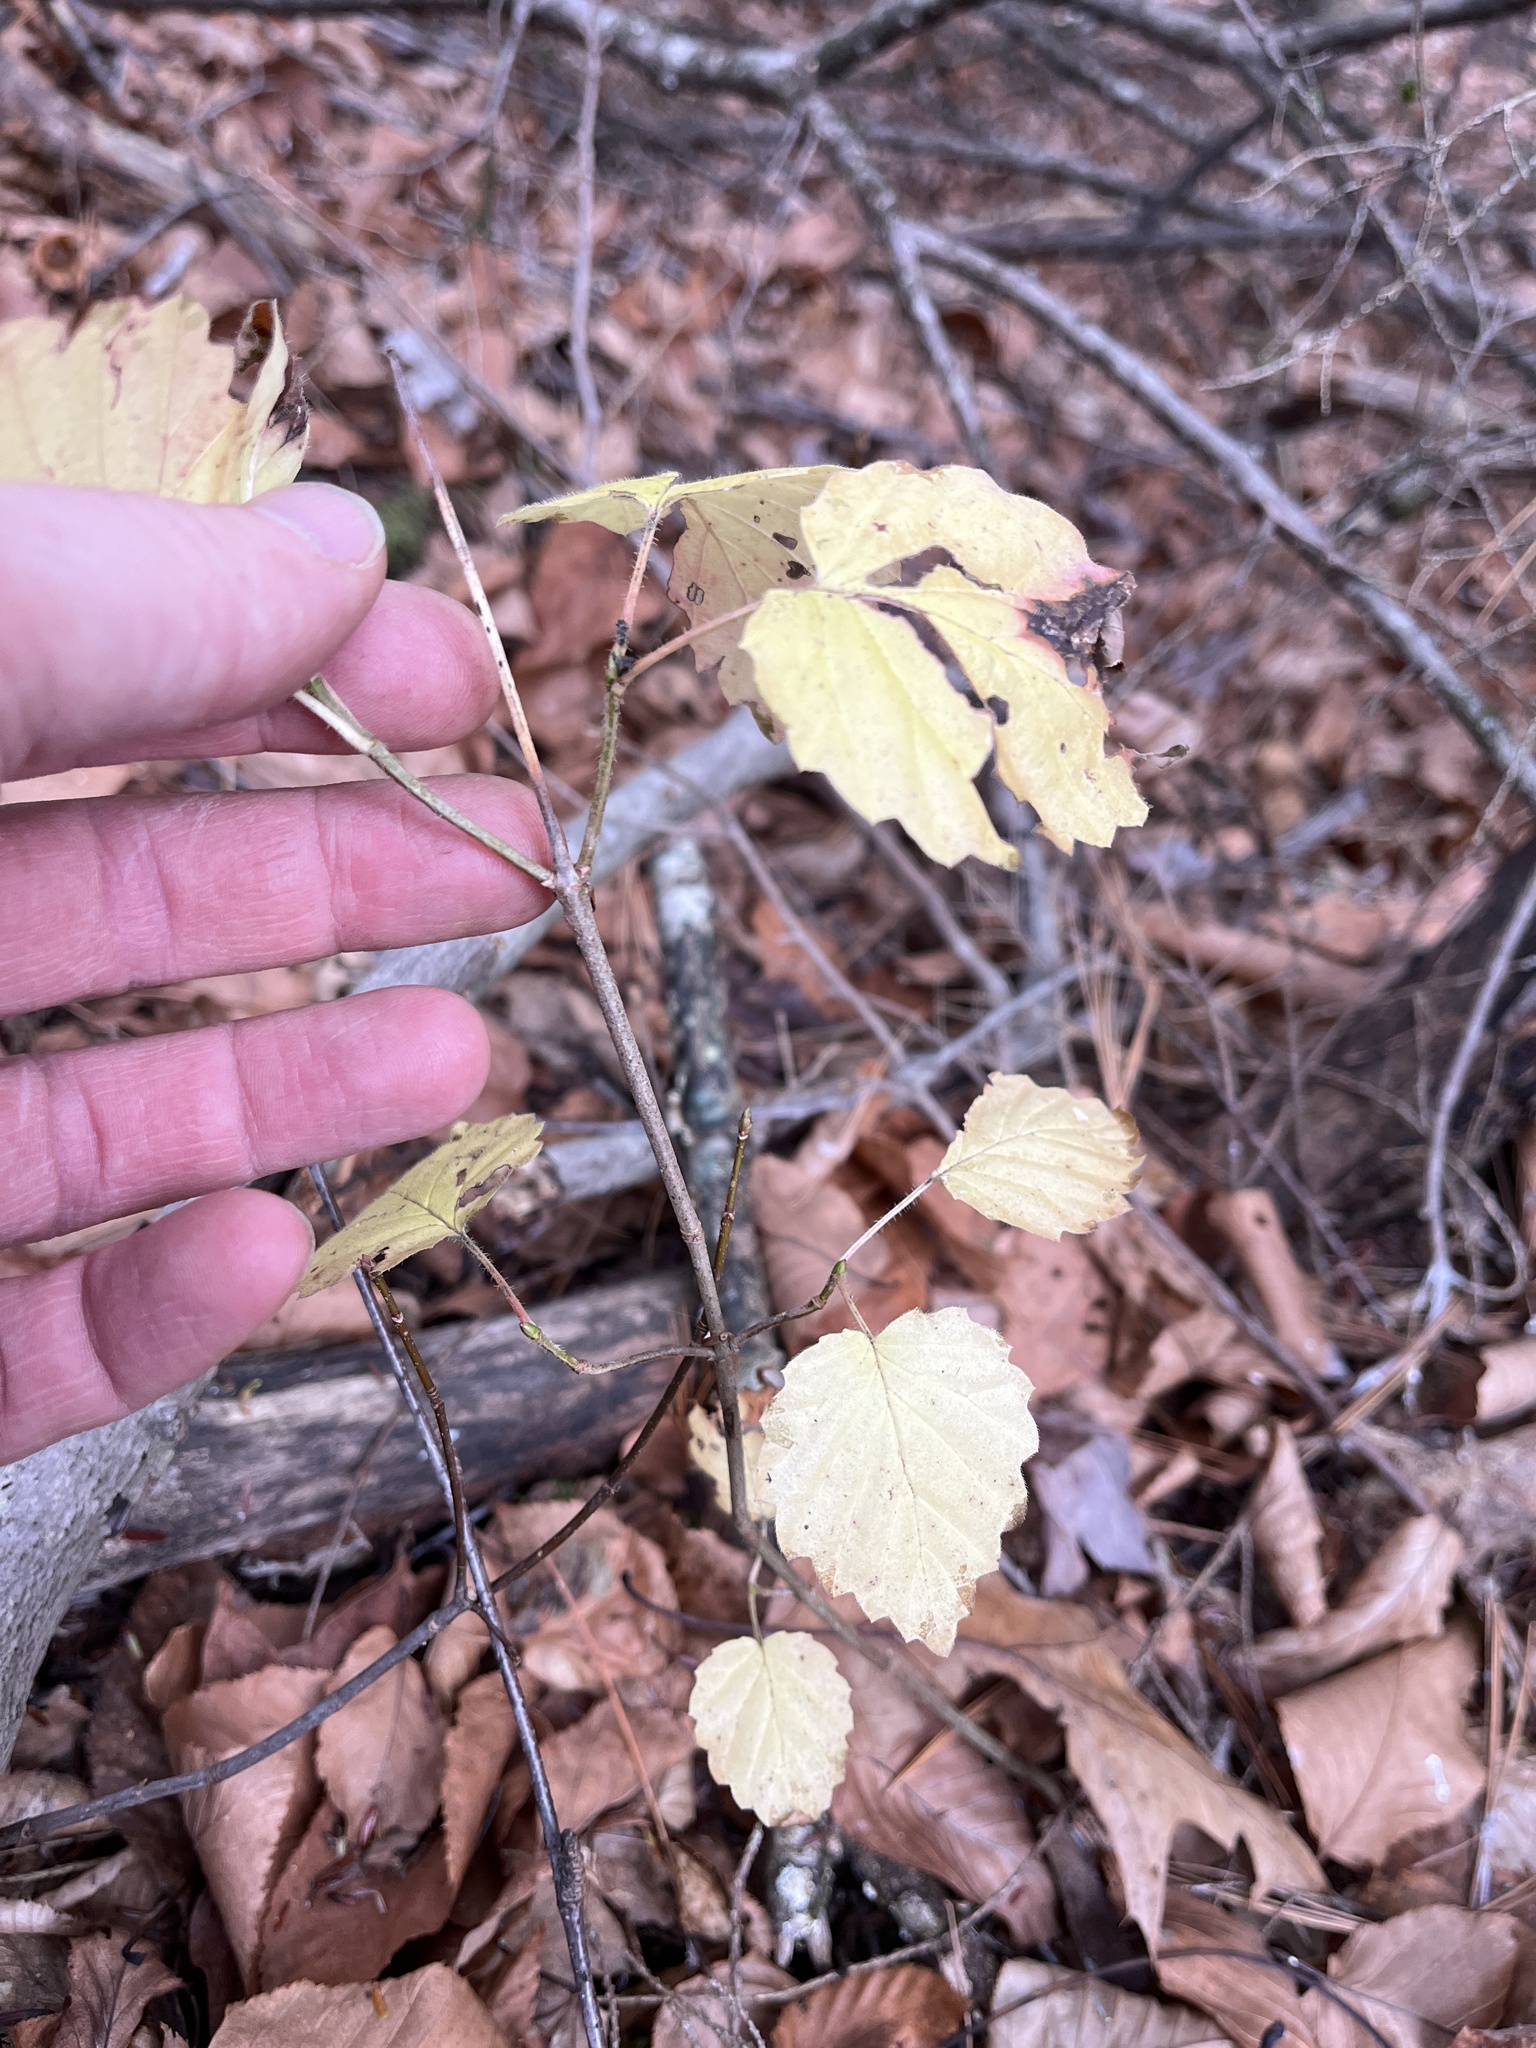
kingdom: Plantae
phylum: Tracheophyta
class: Magnoliopsida
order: Dipsacales
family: Viburnaceae
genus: Viburnum
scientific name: Viburnum dentatum
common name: Arrow-wood
